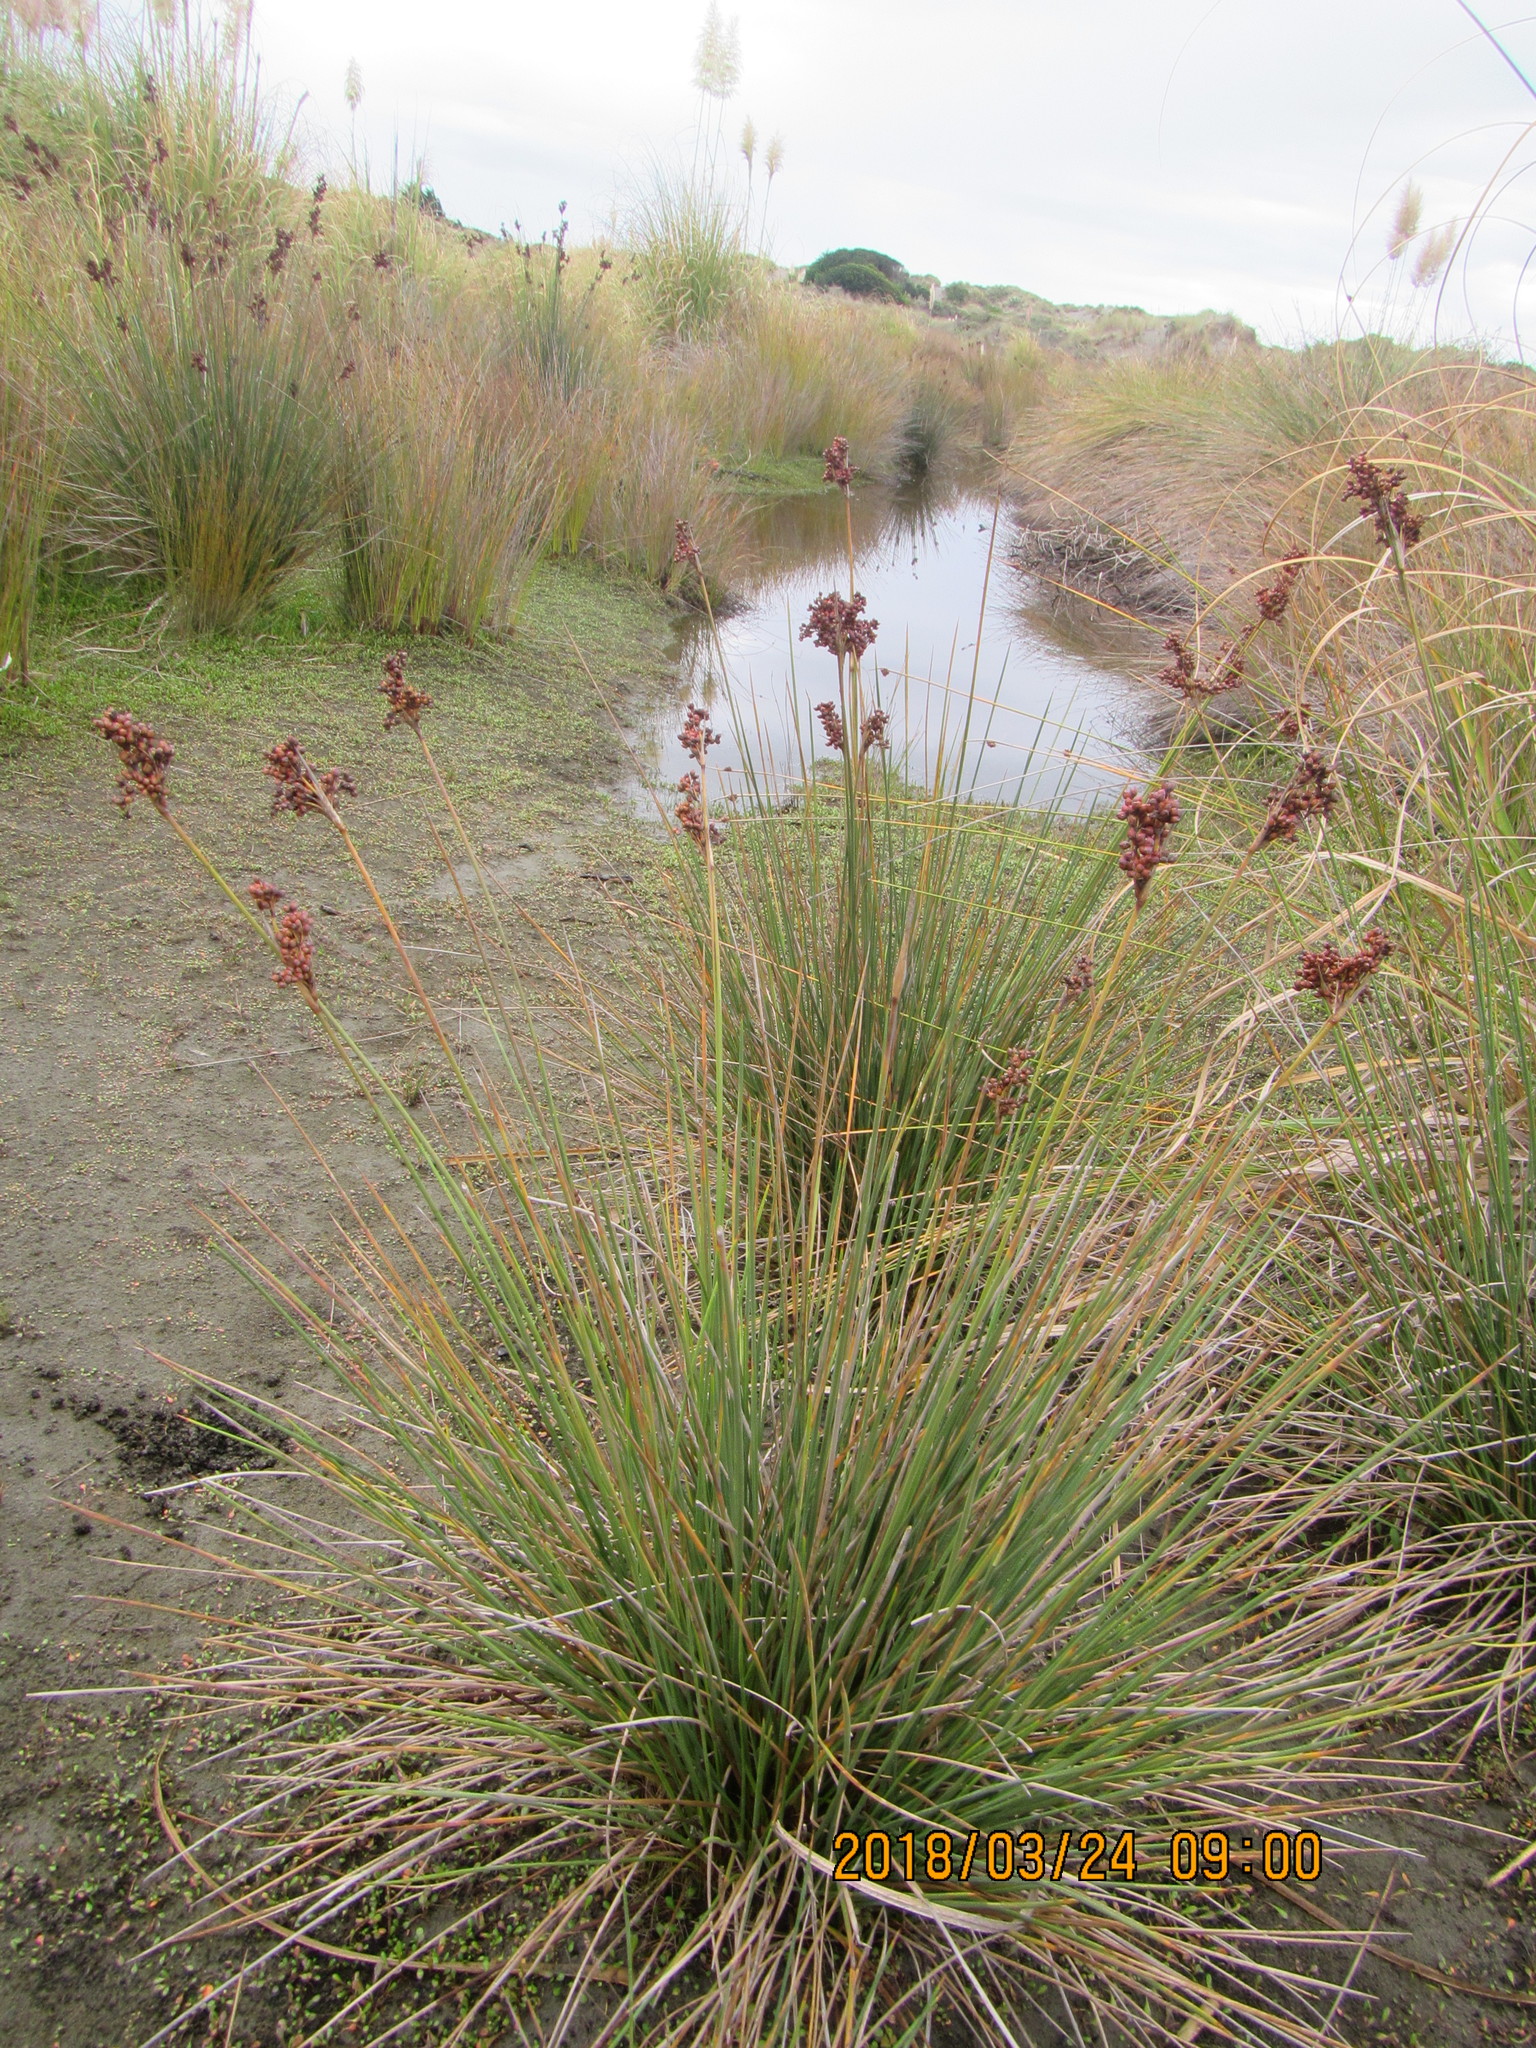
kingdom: Plantae
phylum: Tracheophyta
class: Liliopsida
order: Poales
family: Juncaceae
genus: Juncus
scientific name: Juncus acutus
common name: Sharp rush
